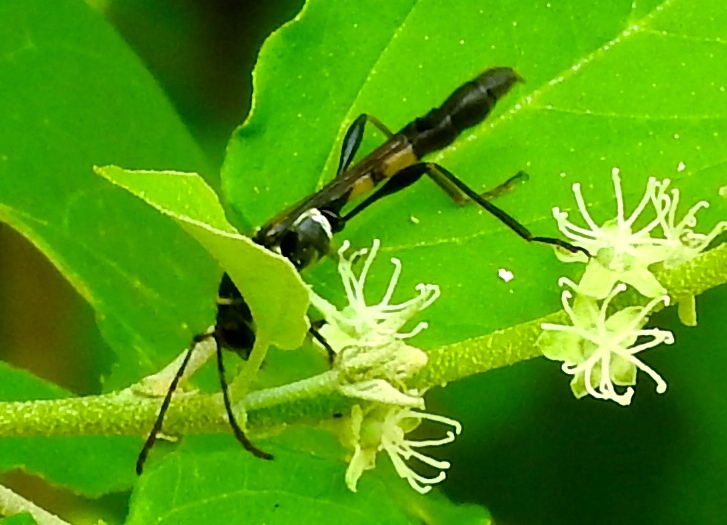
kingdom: Animalia
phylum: Arthropoda
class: Insecta
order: Coleoptera
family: Cerambycidae
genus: Odontocera
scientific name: Odontocera aurocincta
